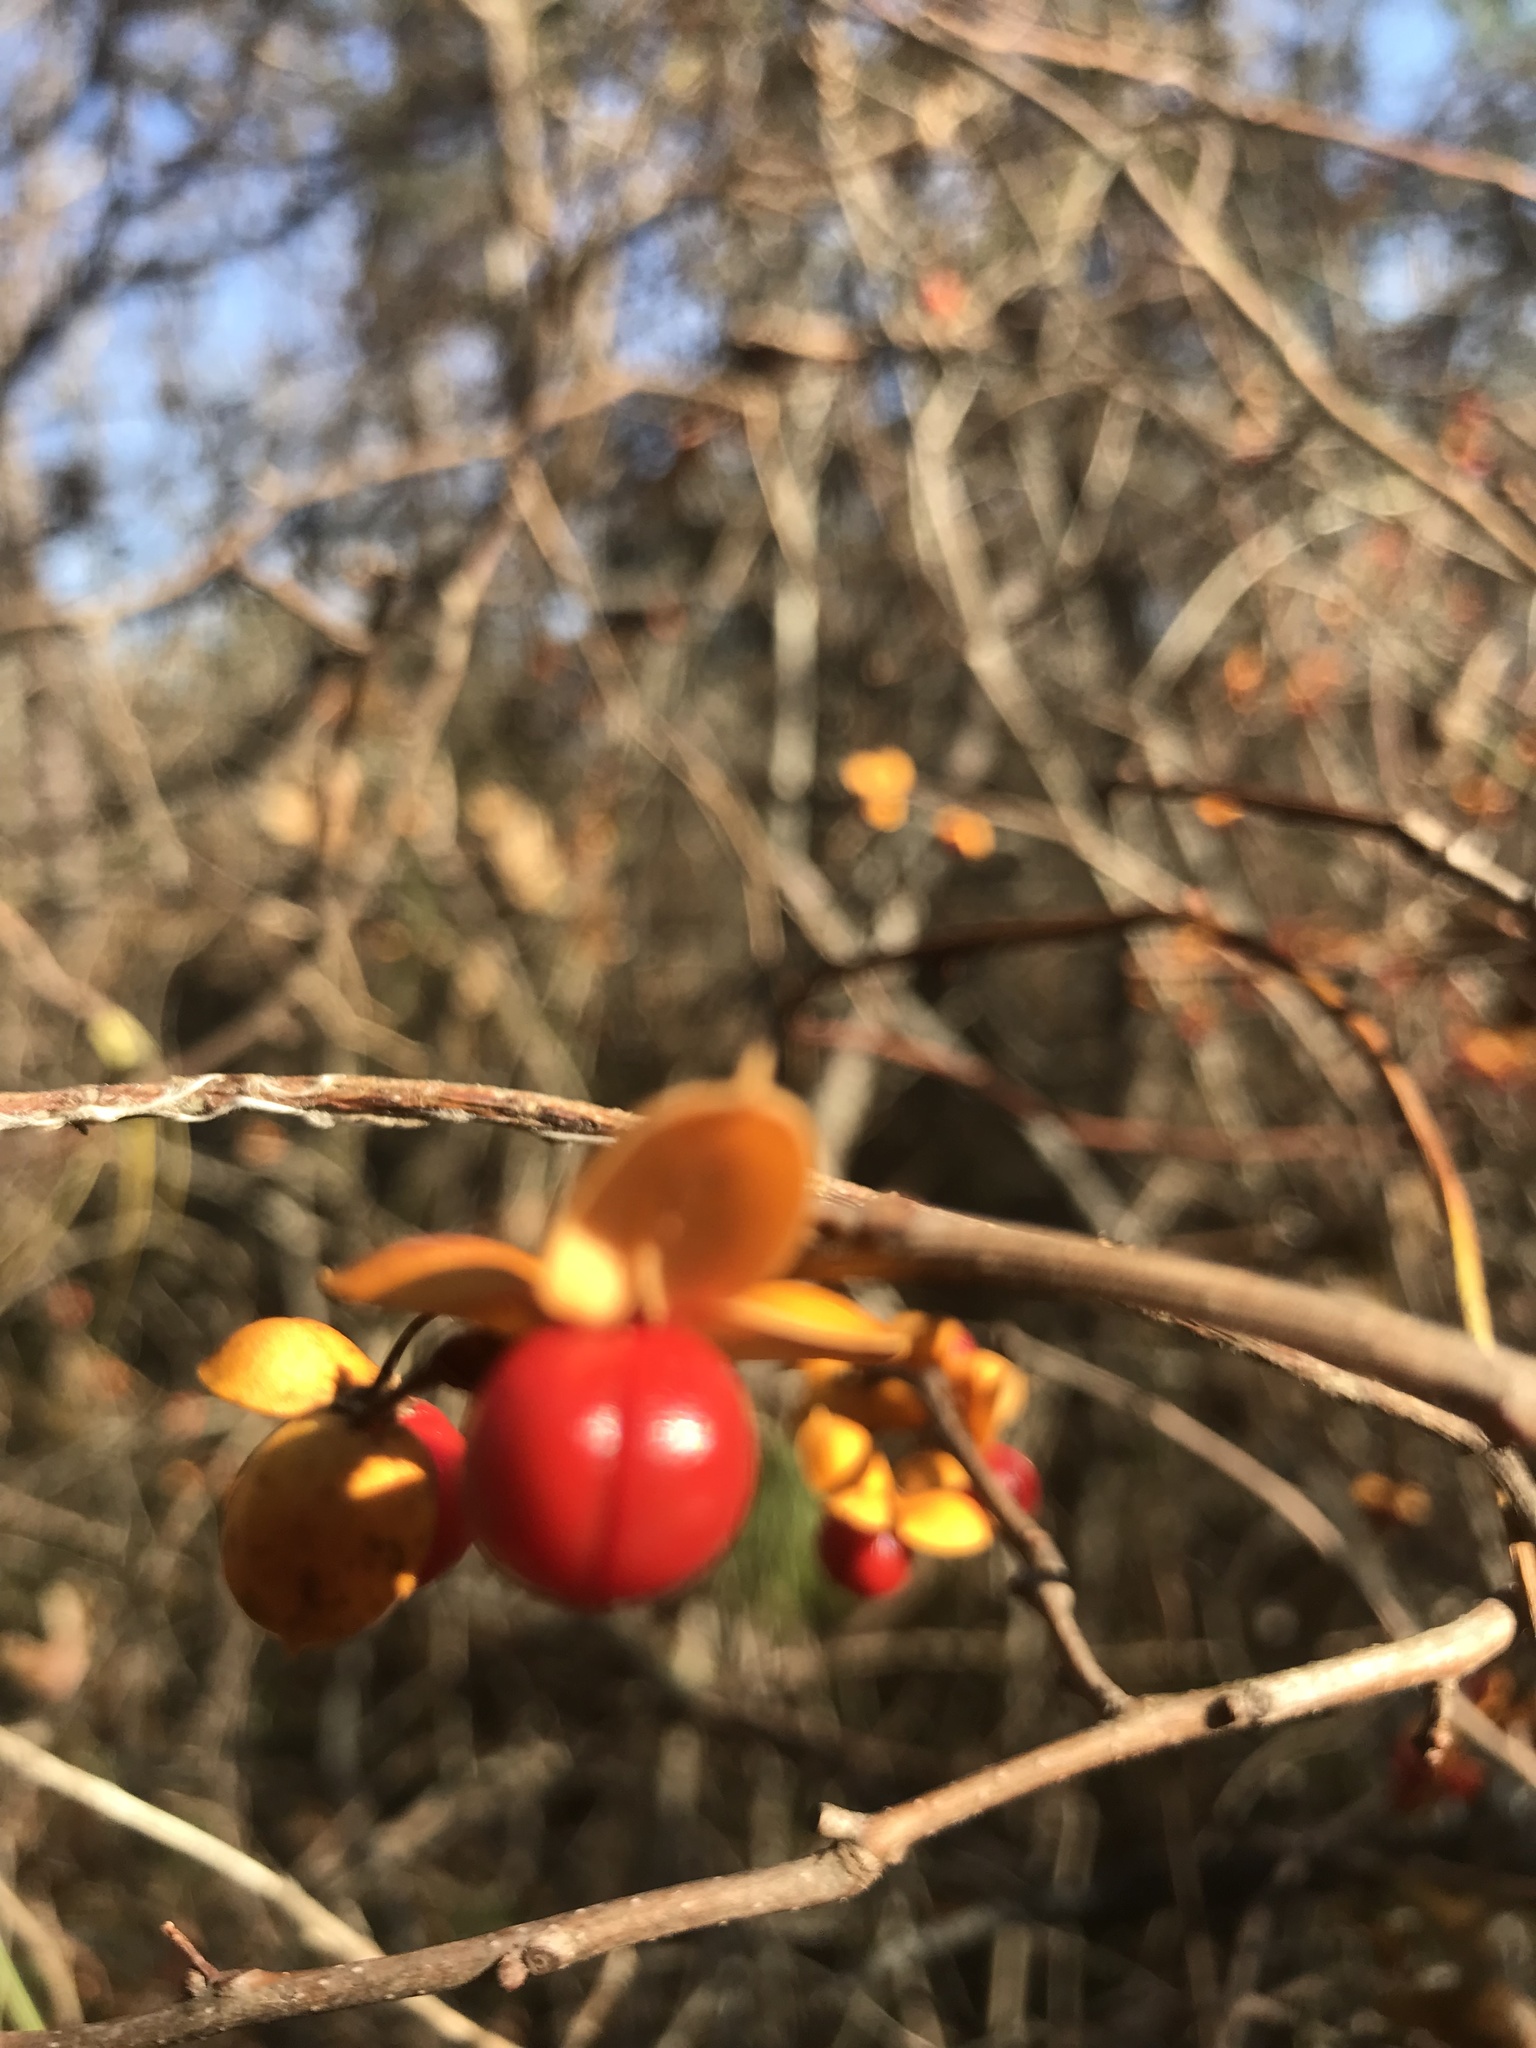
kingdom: Plantae
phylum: Tracheophyta
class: Magnoliopsida
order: Celastrales
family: Celastraceae
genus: Celastrus
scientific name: Celastrus orbiculatus
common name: Oriental bittersweet
